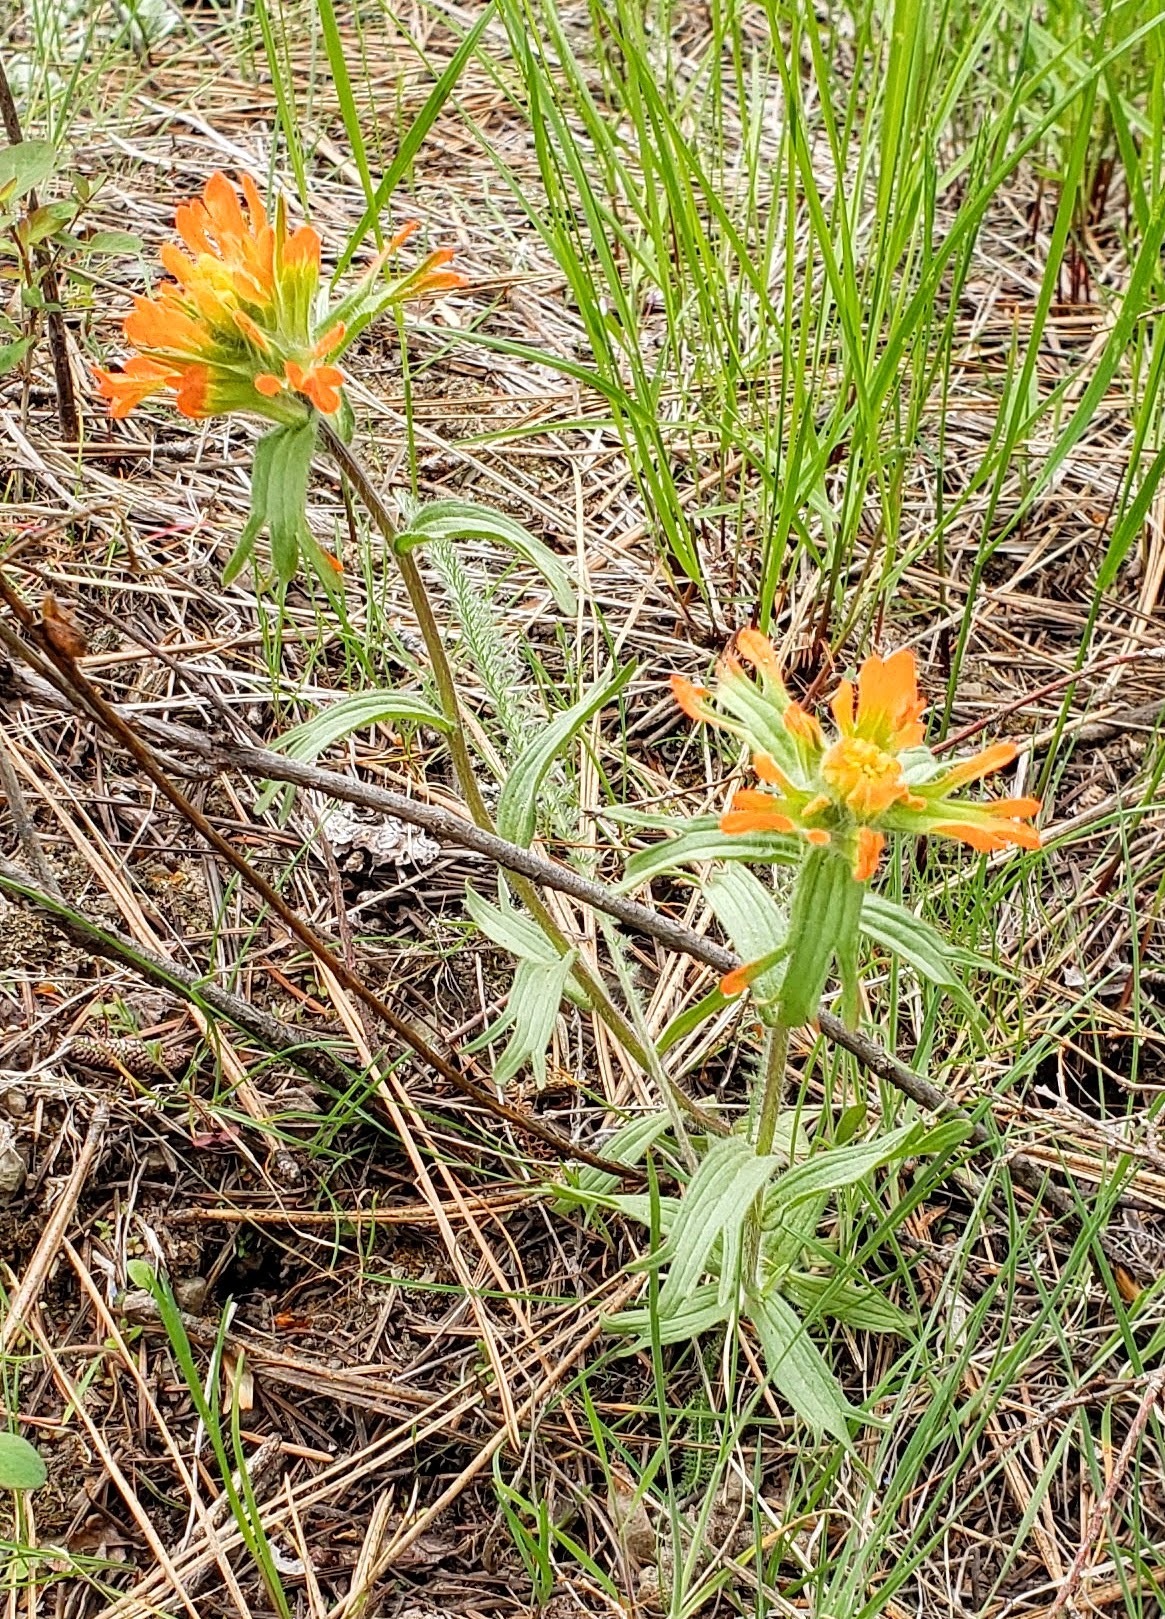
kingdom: Plantae
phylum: Tracheophyta
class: Magnoliopsida
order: Lamiales
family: Orobanchaceae
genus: Castilleja
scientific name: Castilleja hispida
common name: Bristly paintbrush
